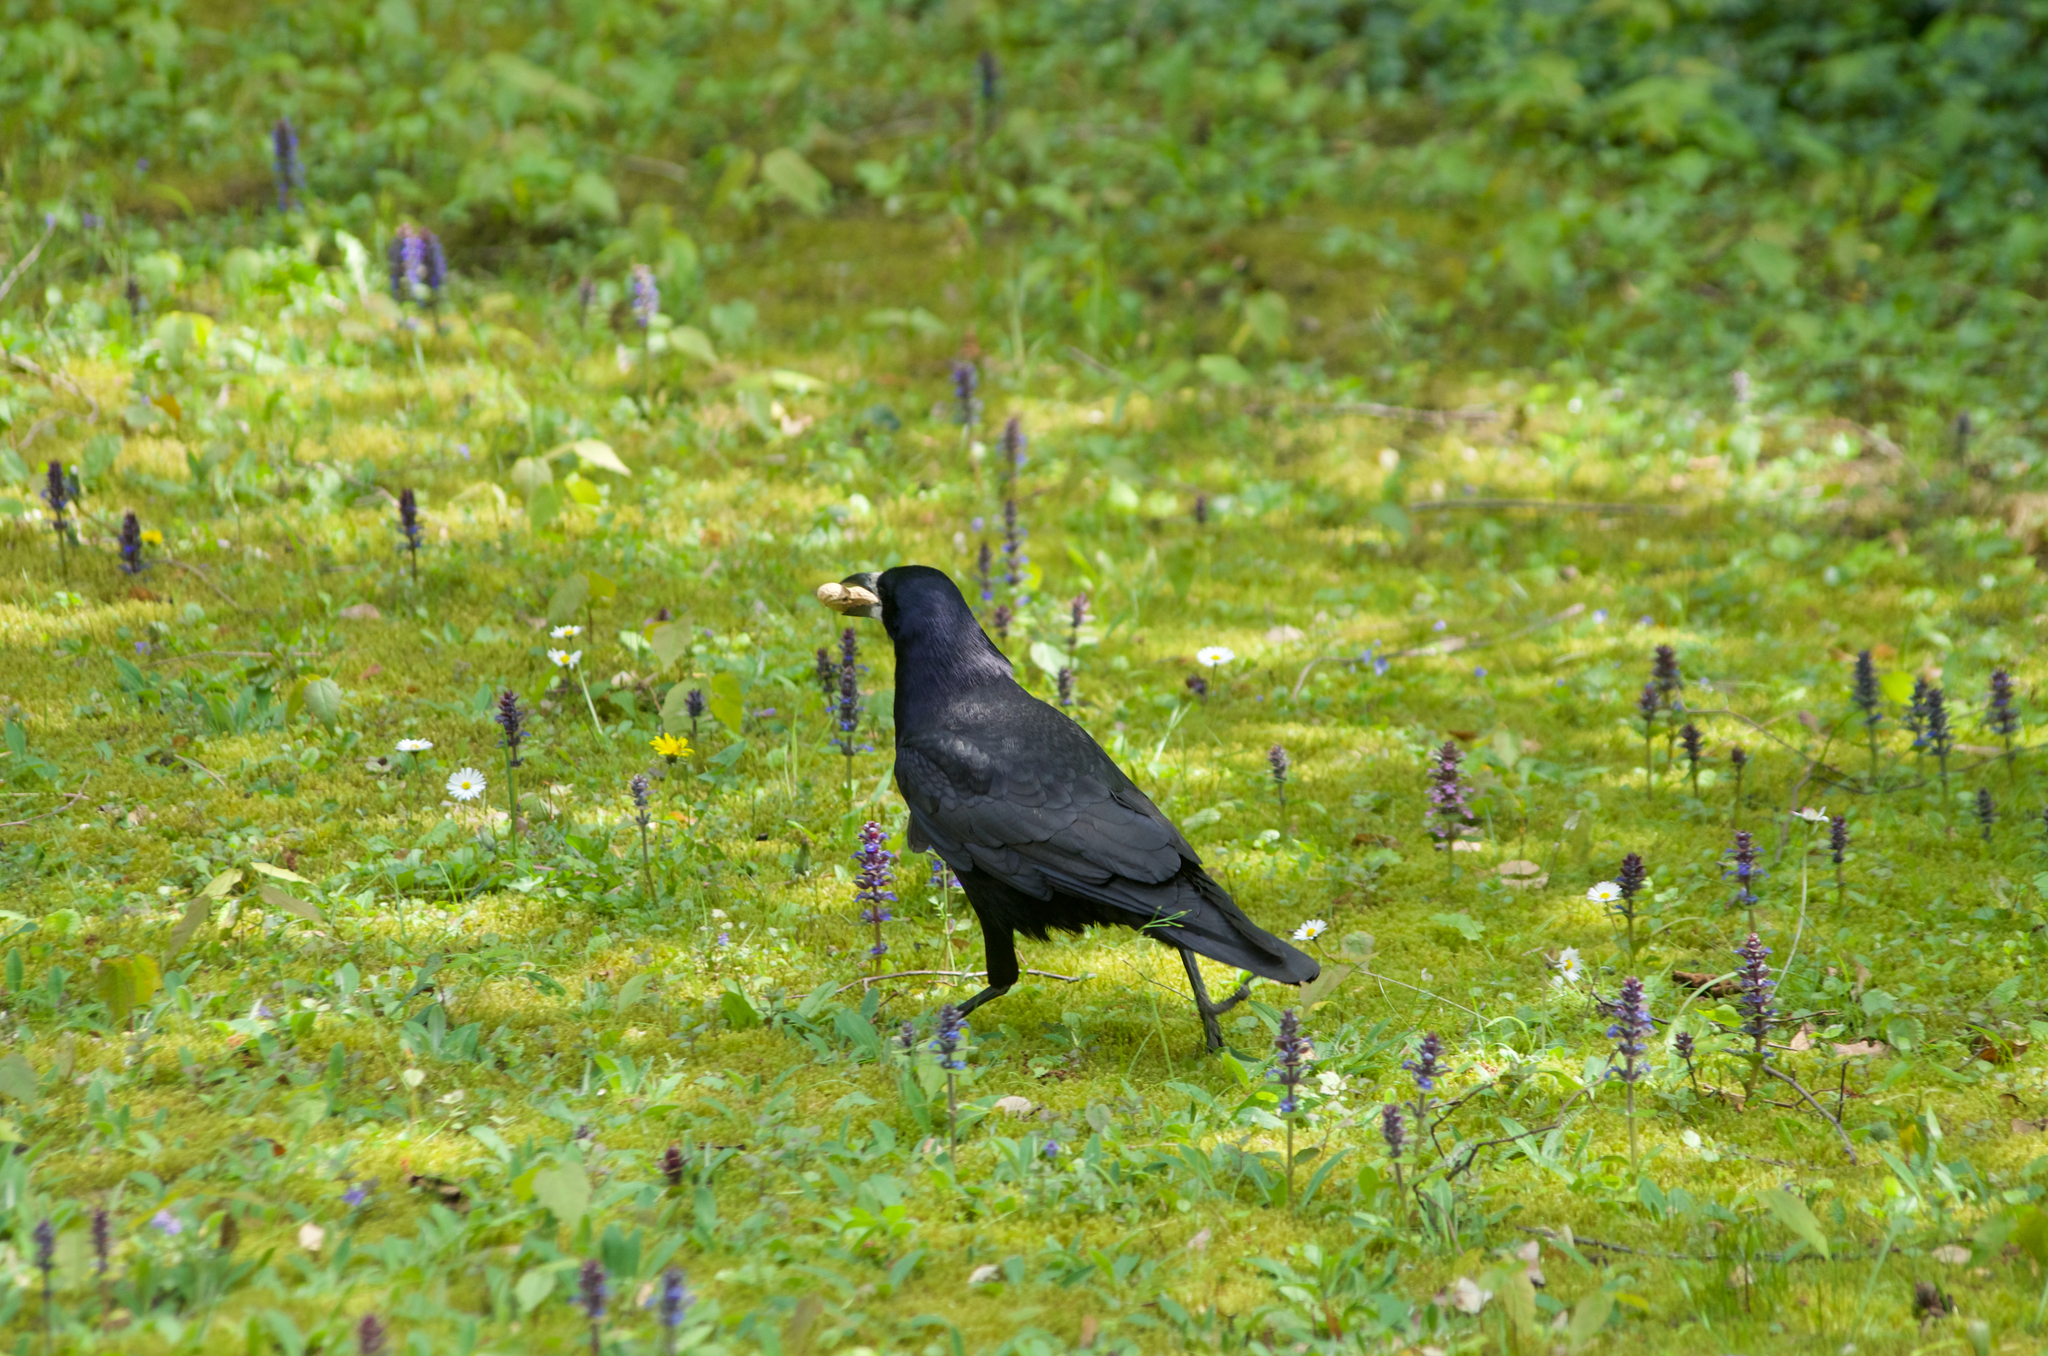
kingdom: Animalia
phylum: Chordata
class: Aves
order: Passeriformes
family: Corvidae
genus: Corvus
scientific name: Corvus frugilegus
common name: Rook
